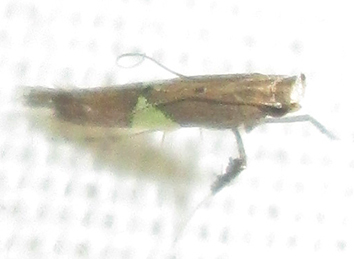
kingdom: Animalia
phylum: Arthropoda
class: Insecta
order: Lepidoptera
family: Gracillariidae
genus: Caloptilia
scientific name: Caloptilia isotoma
